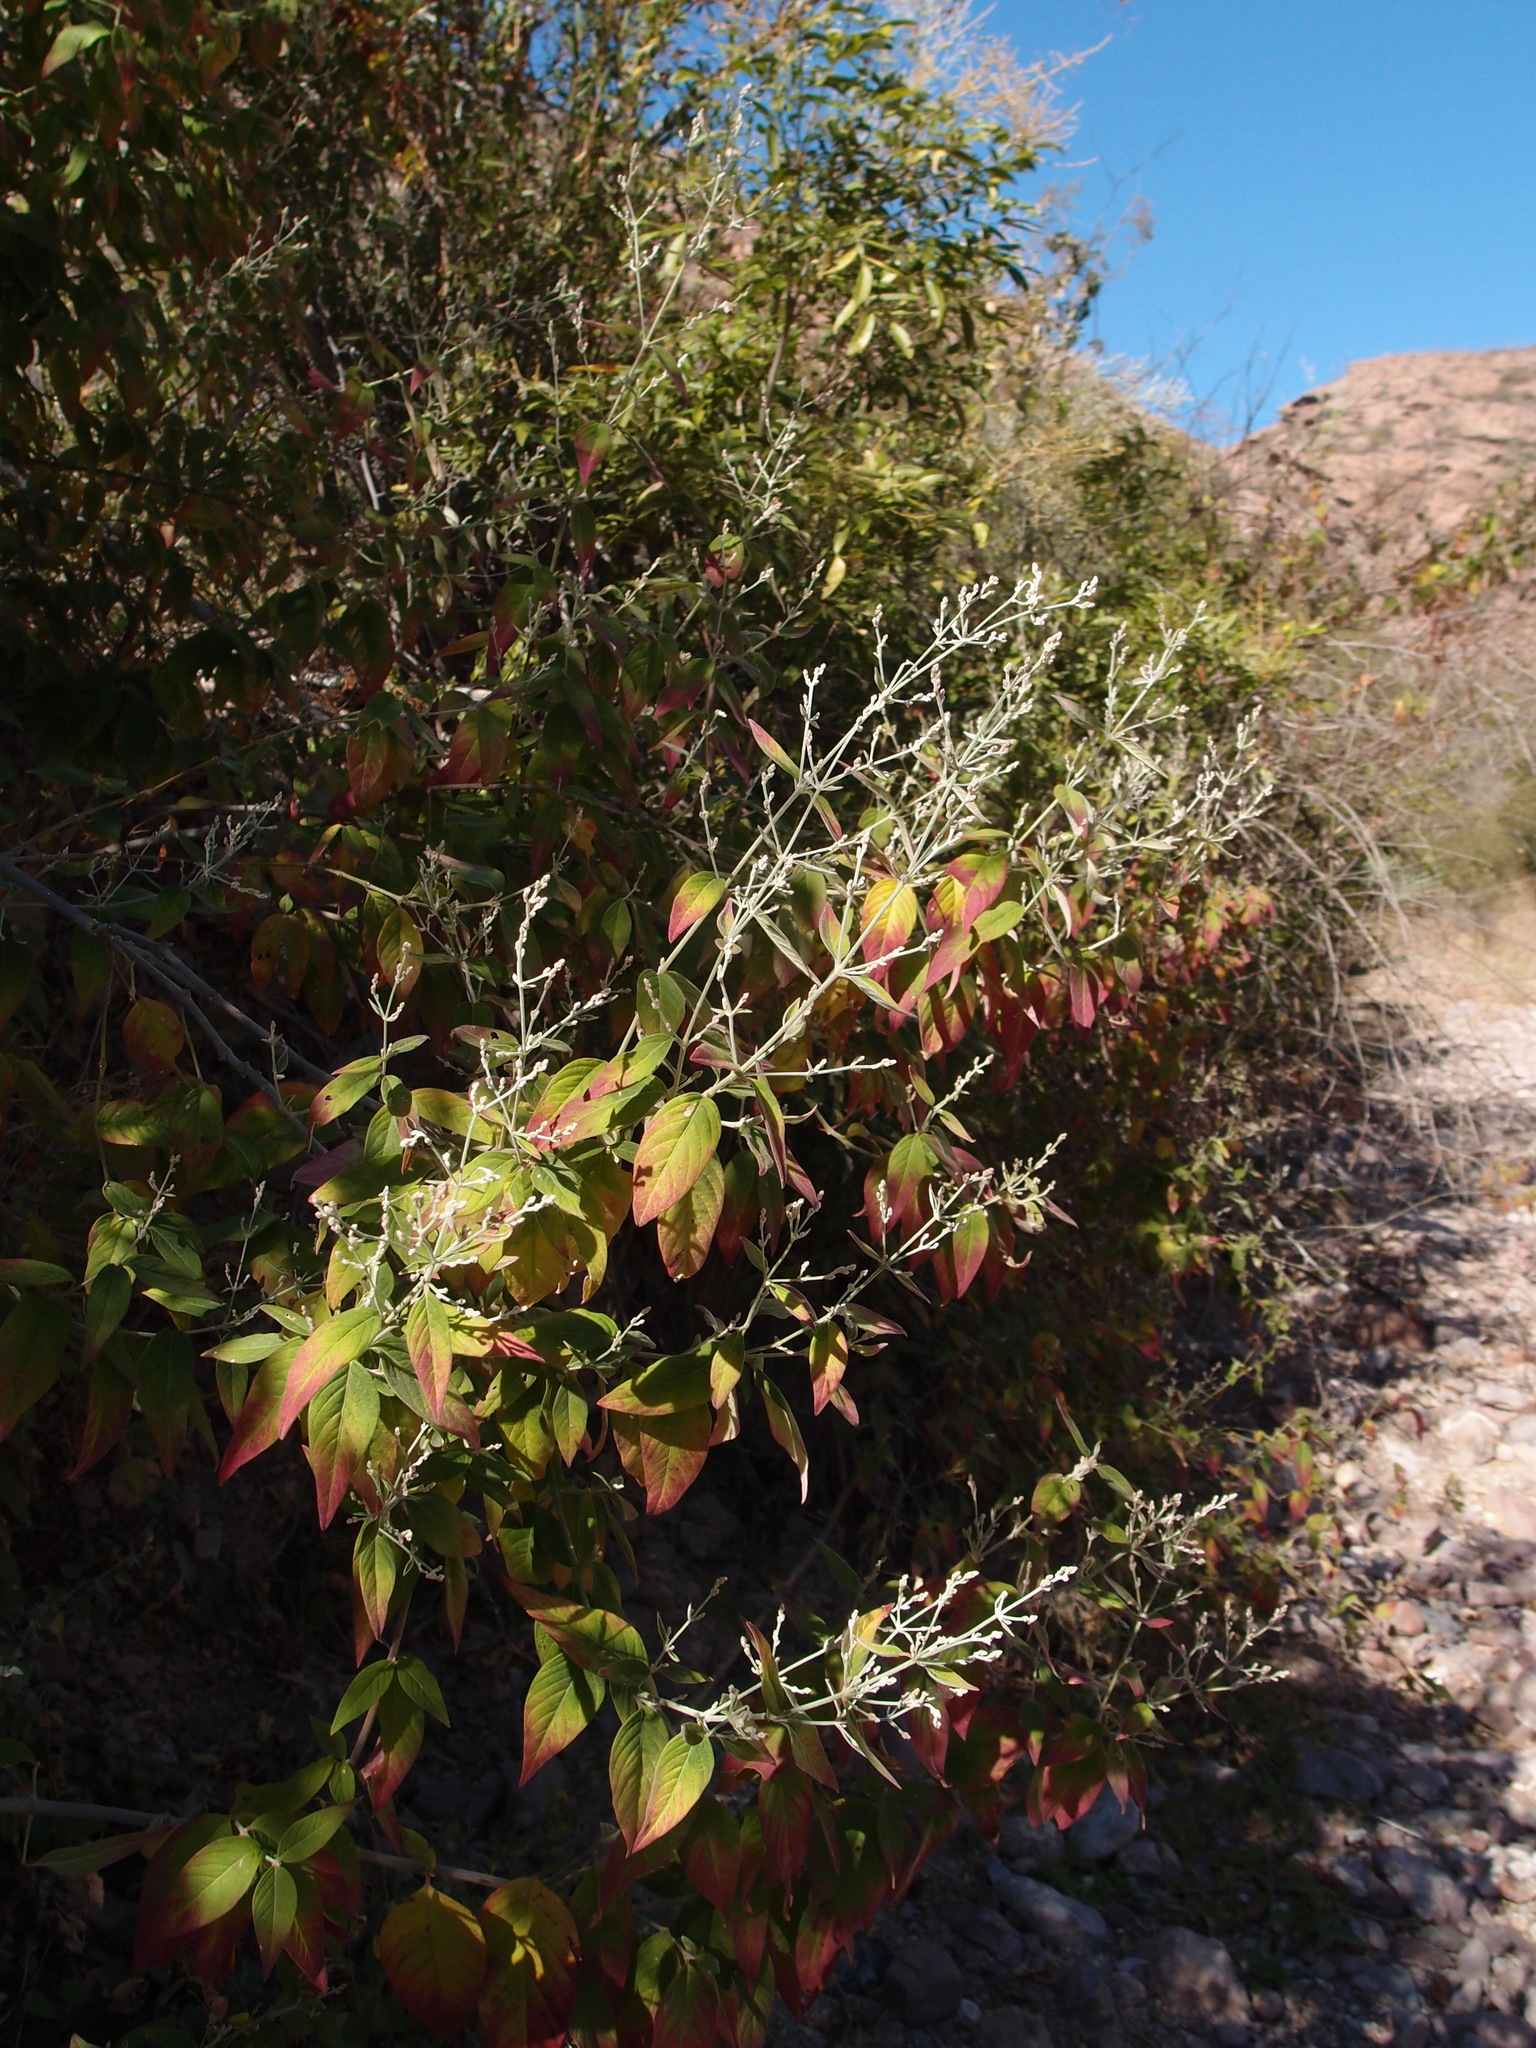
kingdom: Plantae
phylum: Tracheophyta
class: Magnoliopsida
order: Caryophyllales
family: Amaranthaceae
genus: Iresine
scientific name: Iresine latifolia
